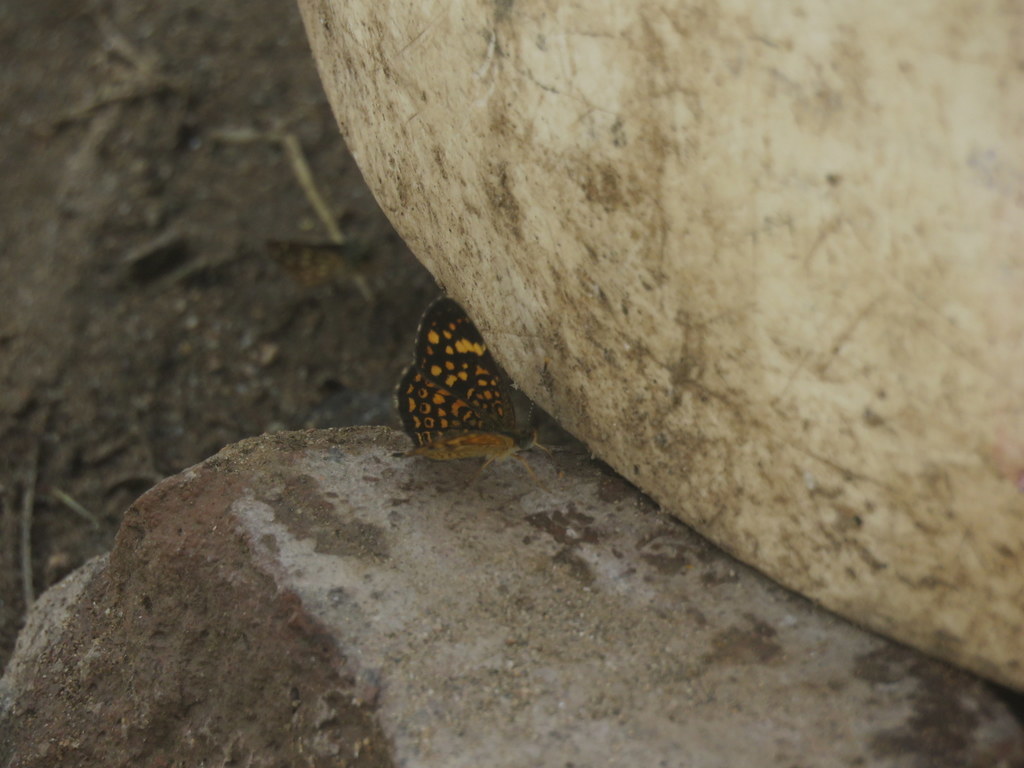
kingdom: Animalia
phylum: Arthropoda
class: Insecta
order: Lepidoptera
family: Nymphalidae
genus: Phystis
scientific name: Phystis simois
